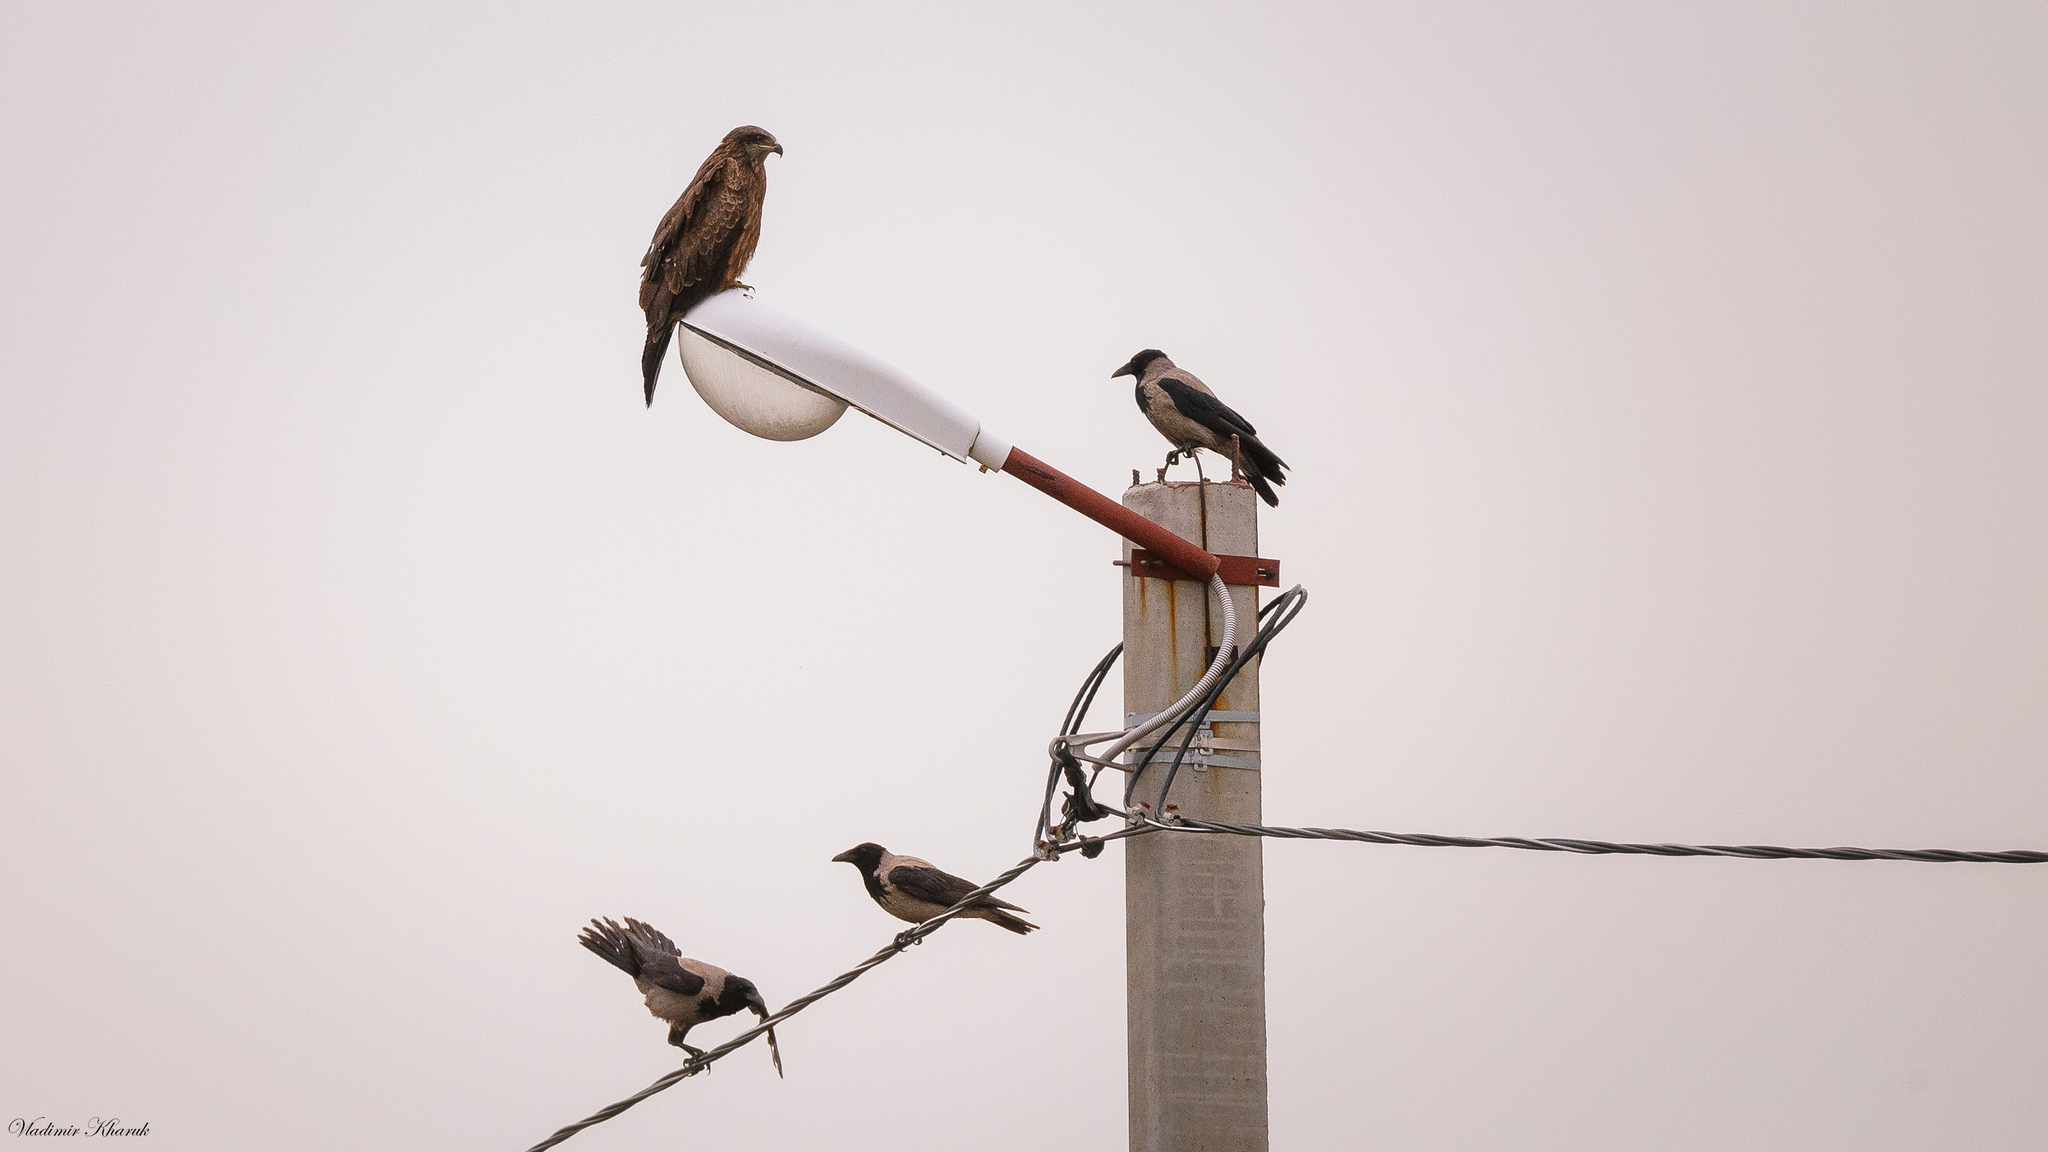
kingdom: Animalia
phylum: Chordata
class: Aves
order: Accipitriformes
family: Accipitridae
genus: Milvus
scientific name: Milvus migrans
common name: Black kite
